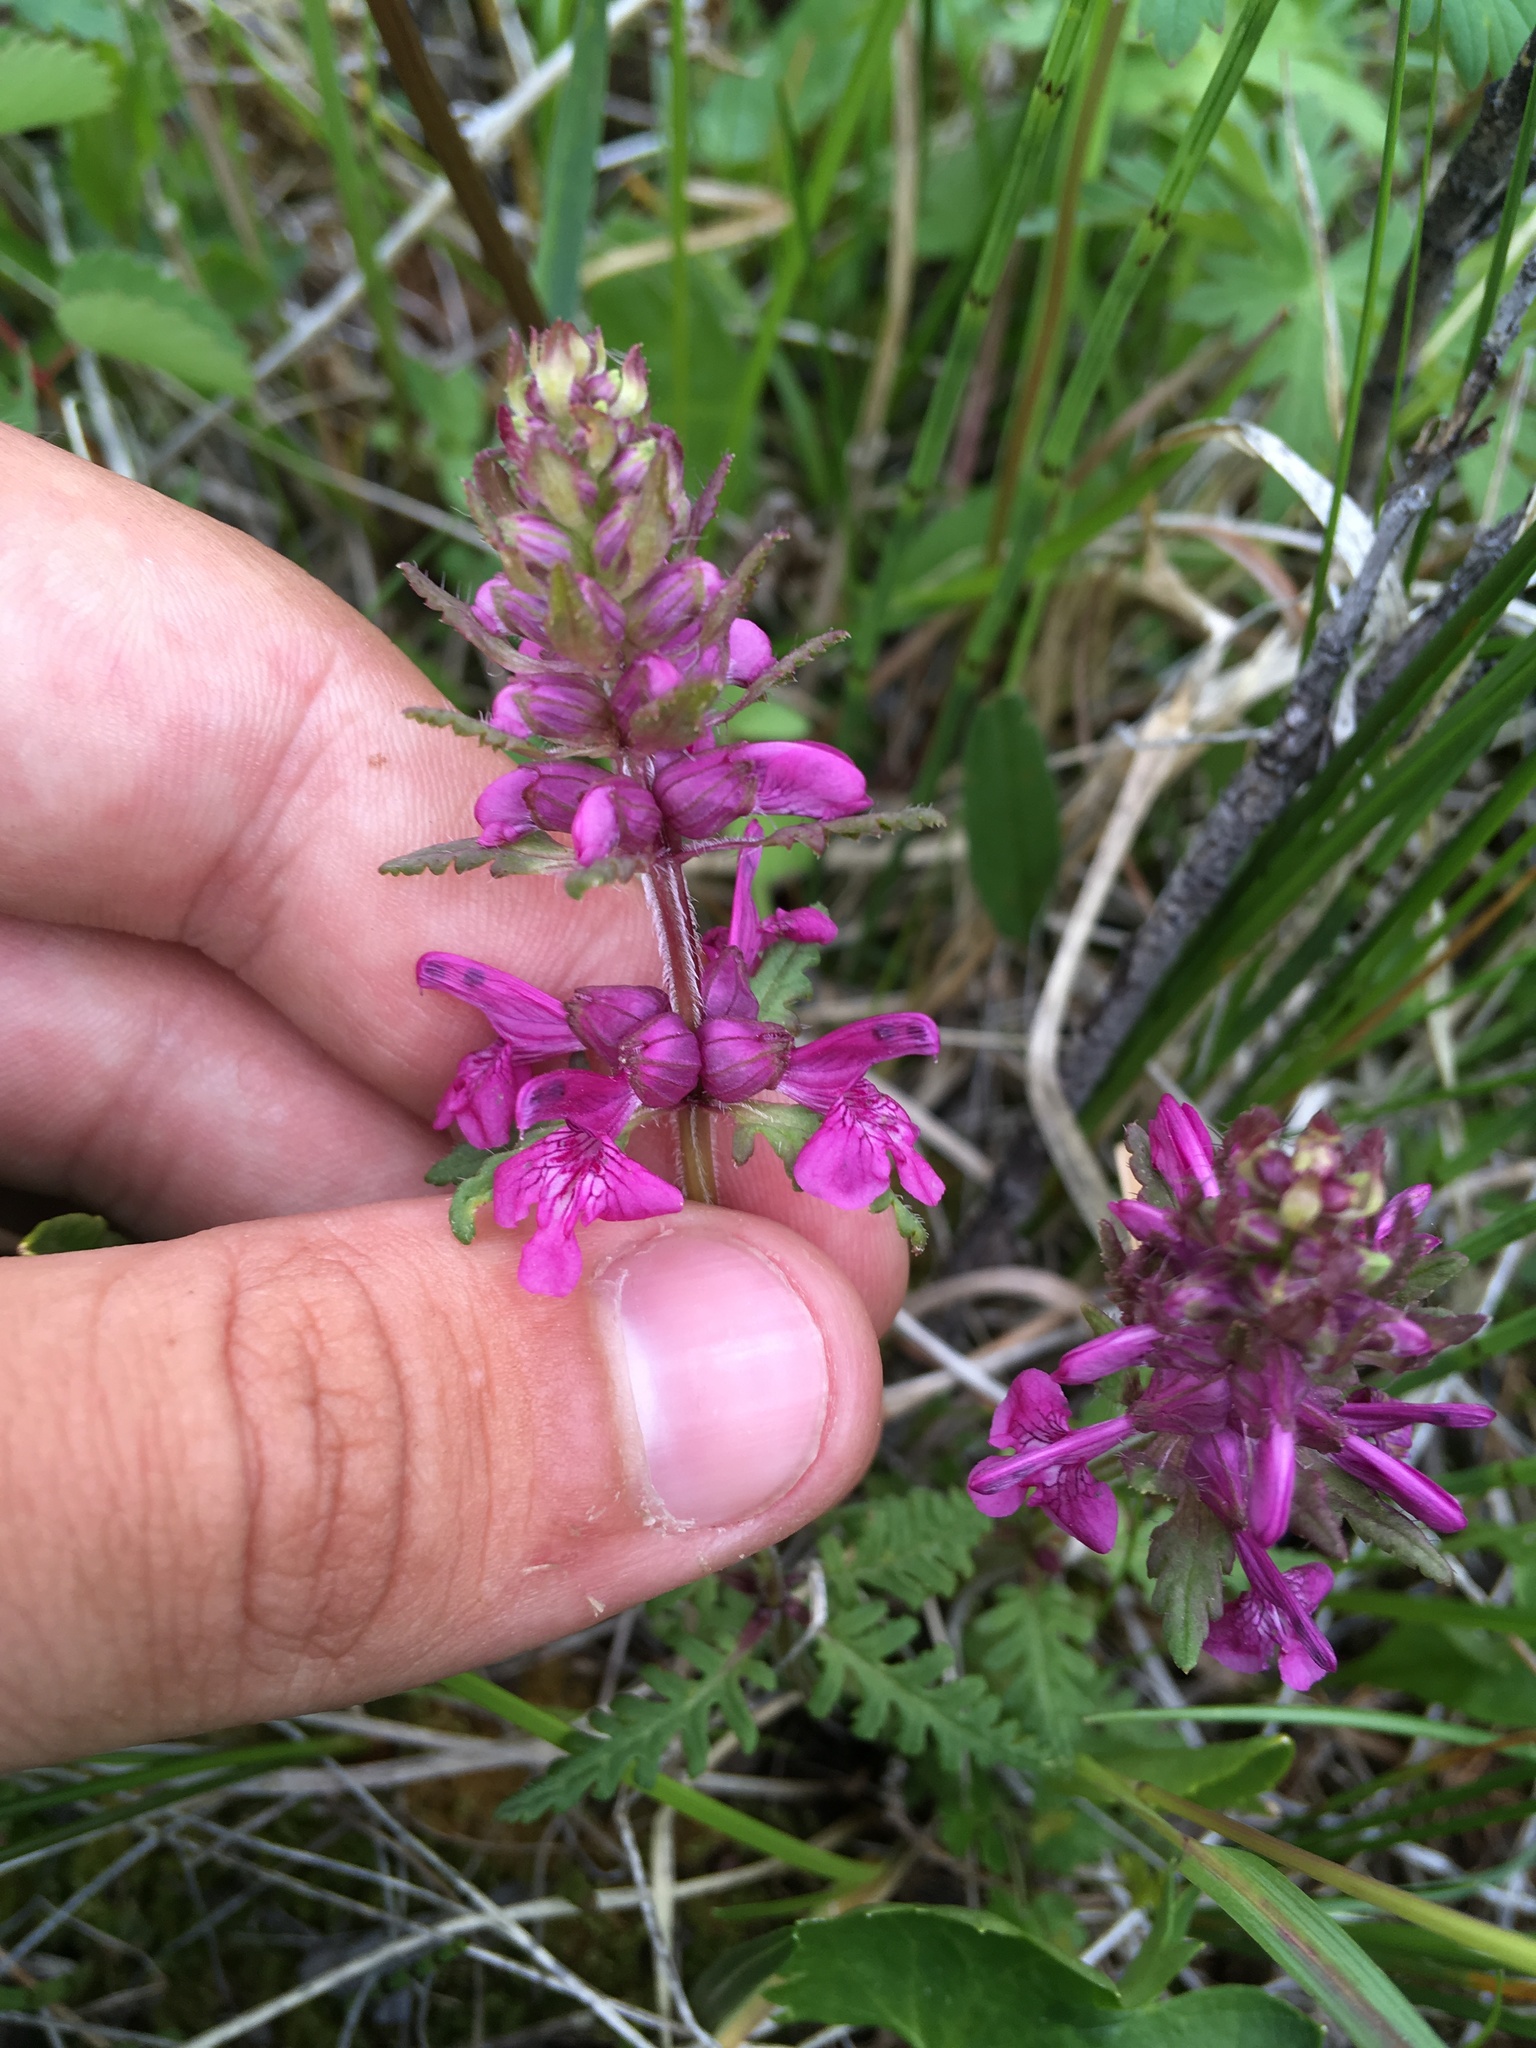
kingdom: Plantae
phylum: Tracheophyta
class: Magnoliopsida
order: Lamiales
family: Orobanchaceae
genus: Pedicularis
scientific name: Pedicularis verticillata
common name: Whorled lousewort
